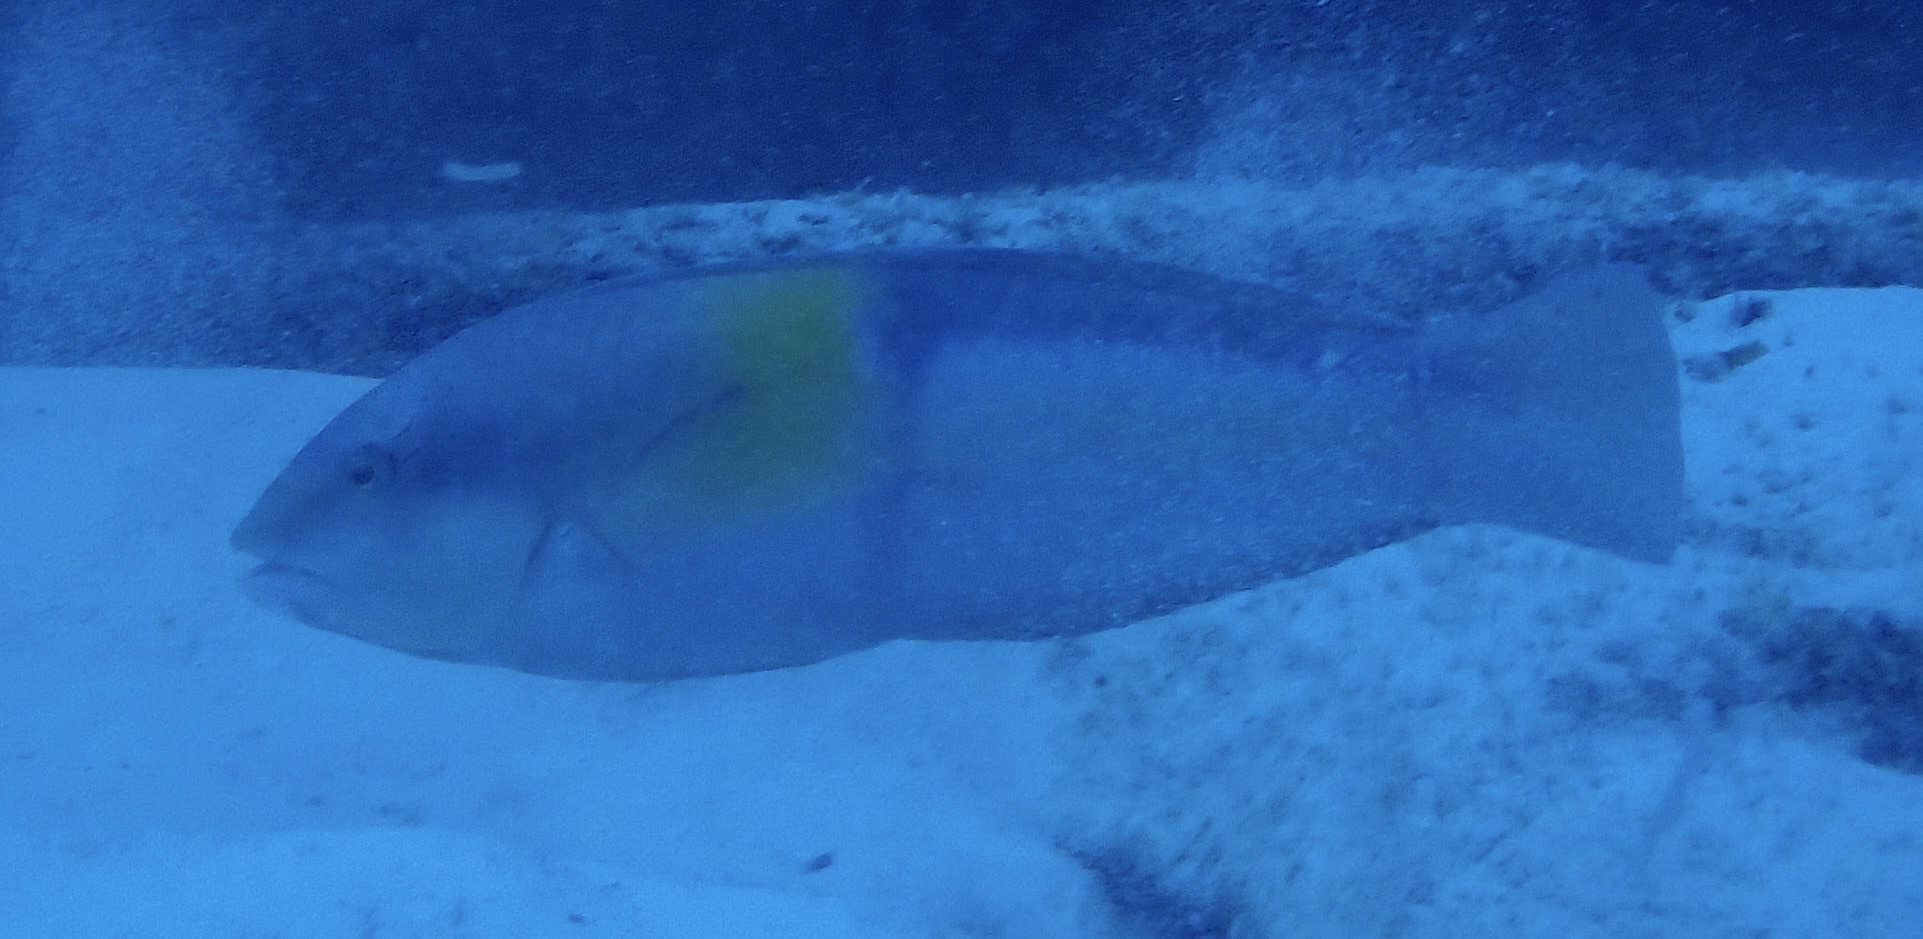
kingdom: Animalia
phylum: Chordata
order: Perciformes
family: Labridae
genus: Halichoeres
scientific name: Halichoeres garnoti
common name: Yellowhead wrasse
